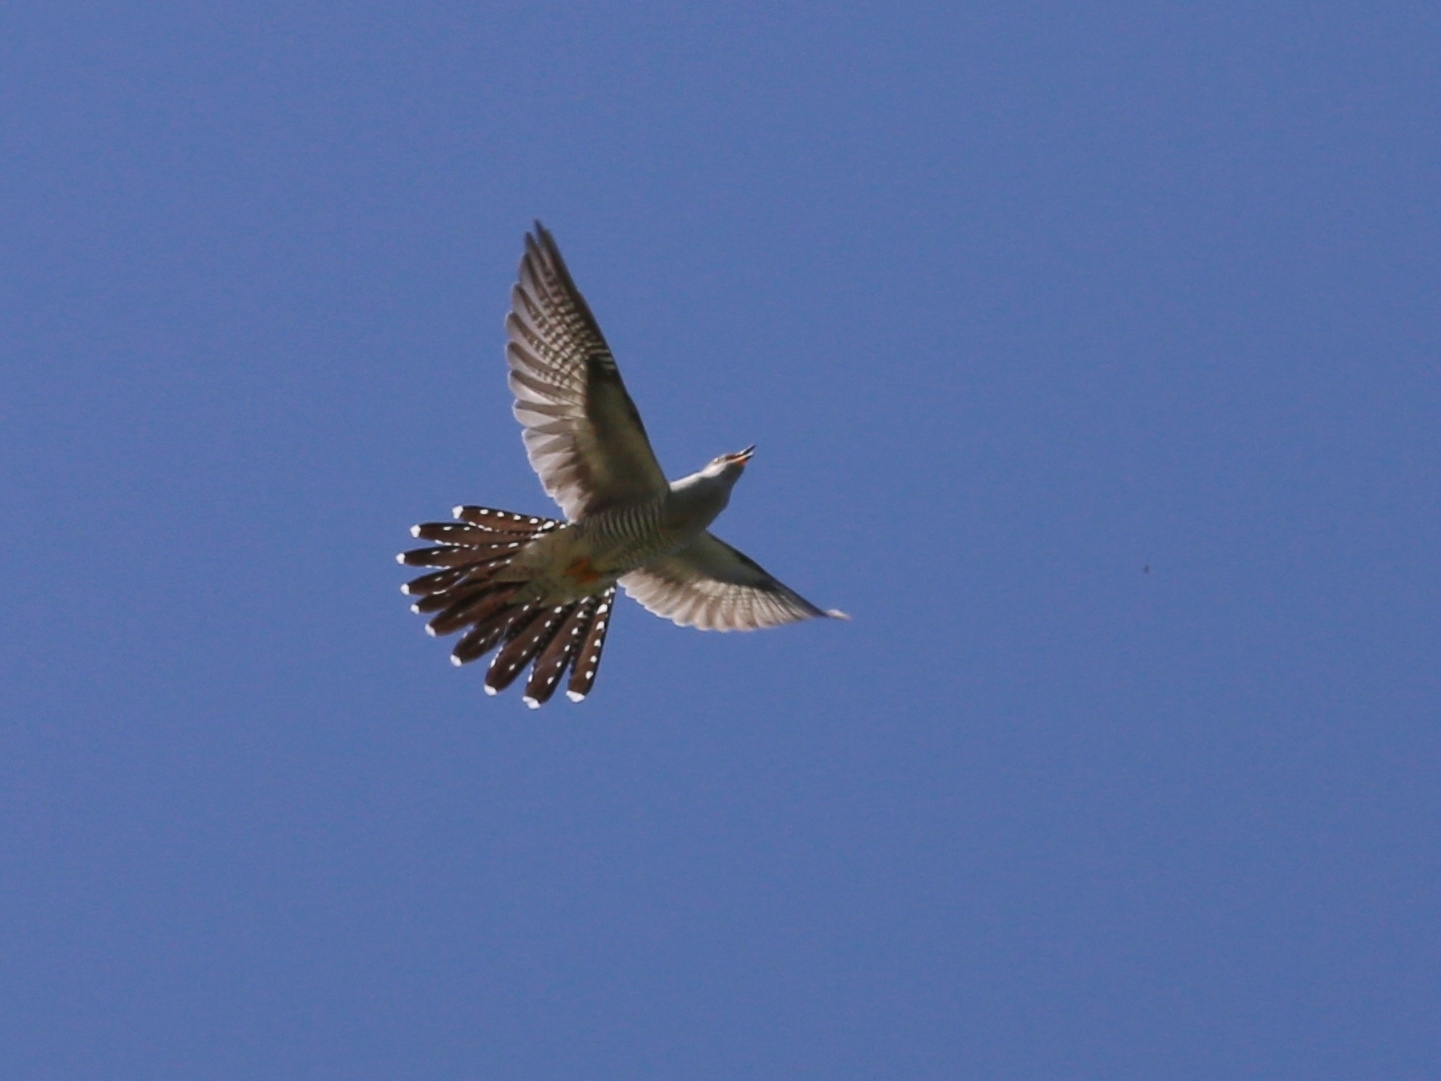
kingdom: Animalia
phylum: Chordata
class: Aves
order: Cuculiformes
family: Cuculidae
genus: Cuculus
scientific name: Cuculus canorus
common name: Common cuckoo
